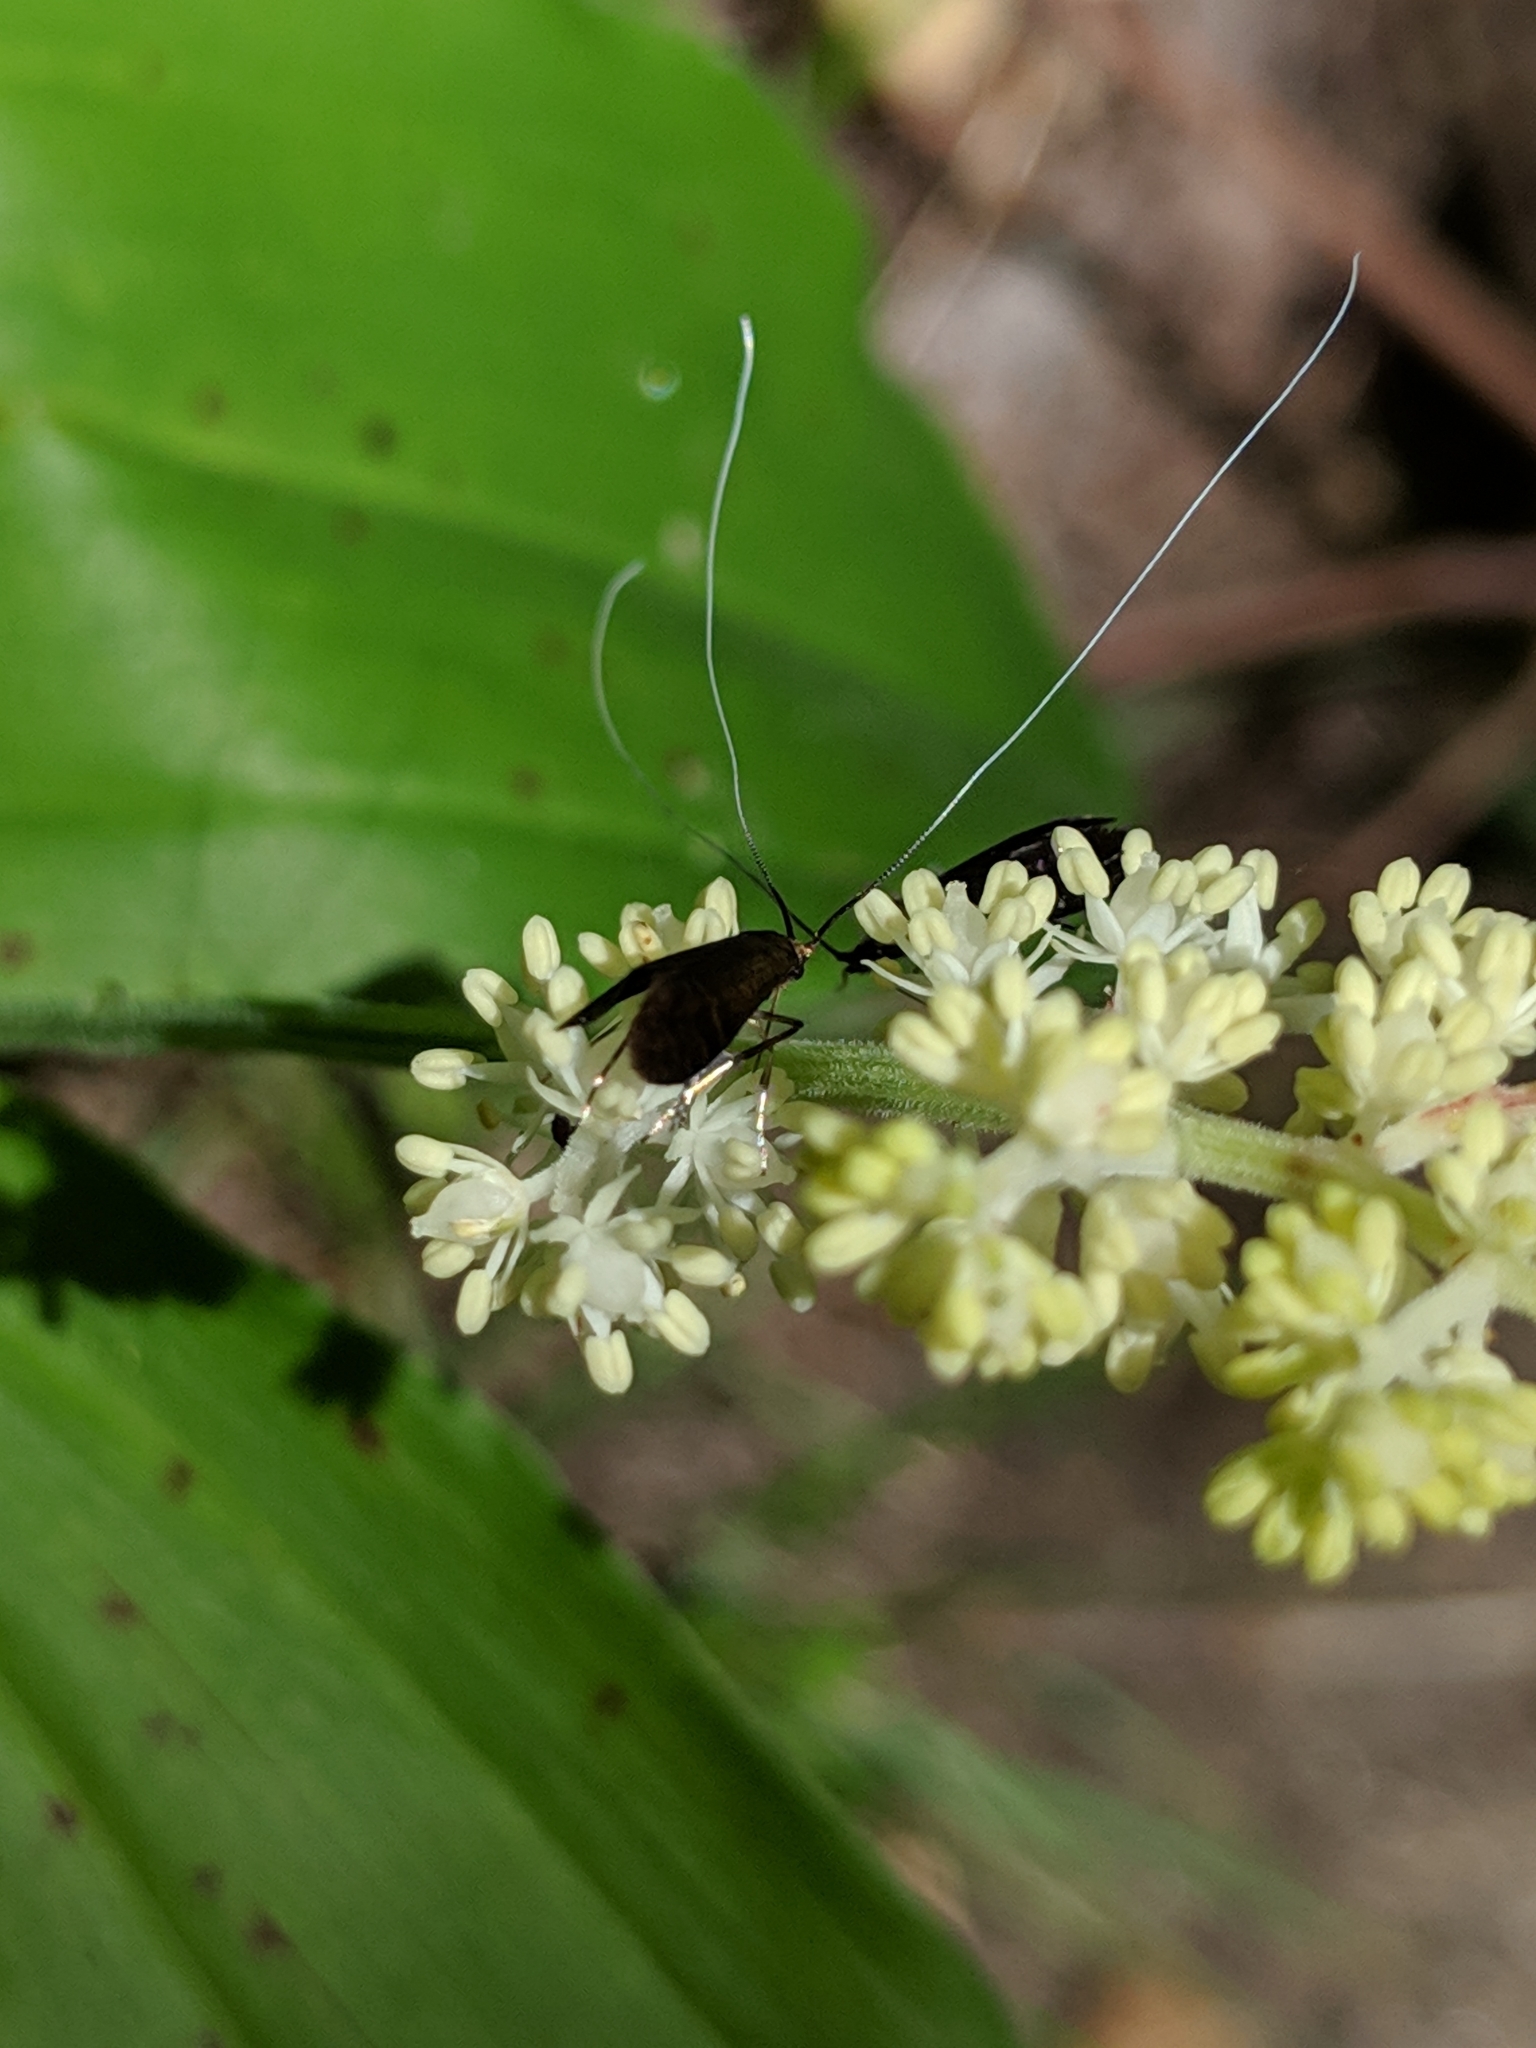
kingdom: Animalia
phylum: Arthropoda
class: Insecta
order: Lepidoptera
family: Adelidae
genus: Adela
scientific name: Adela caeruleella
